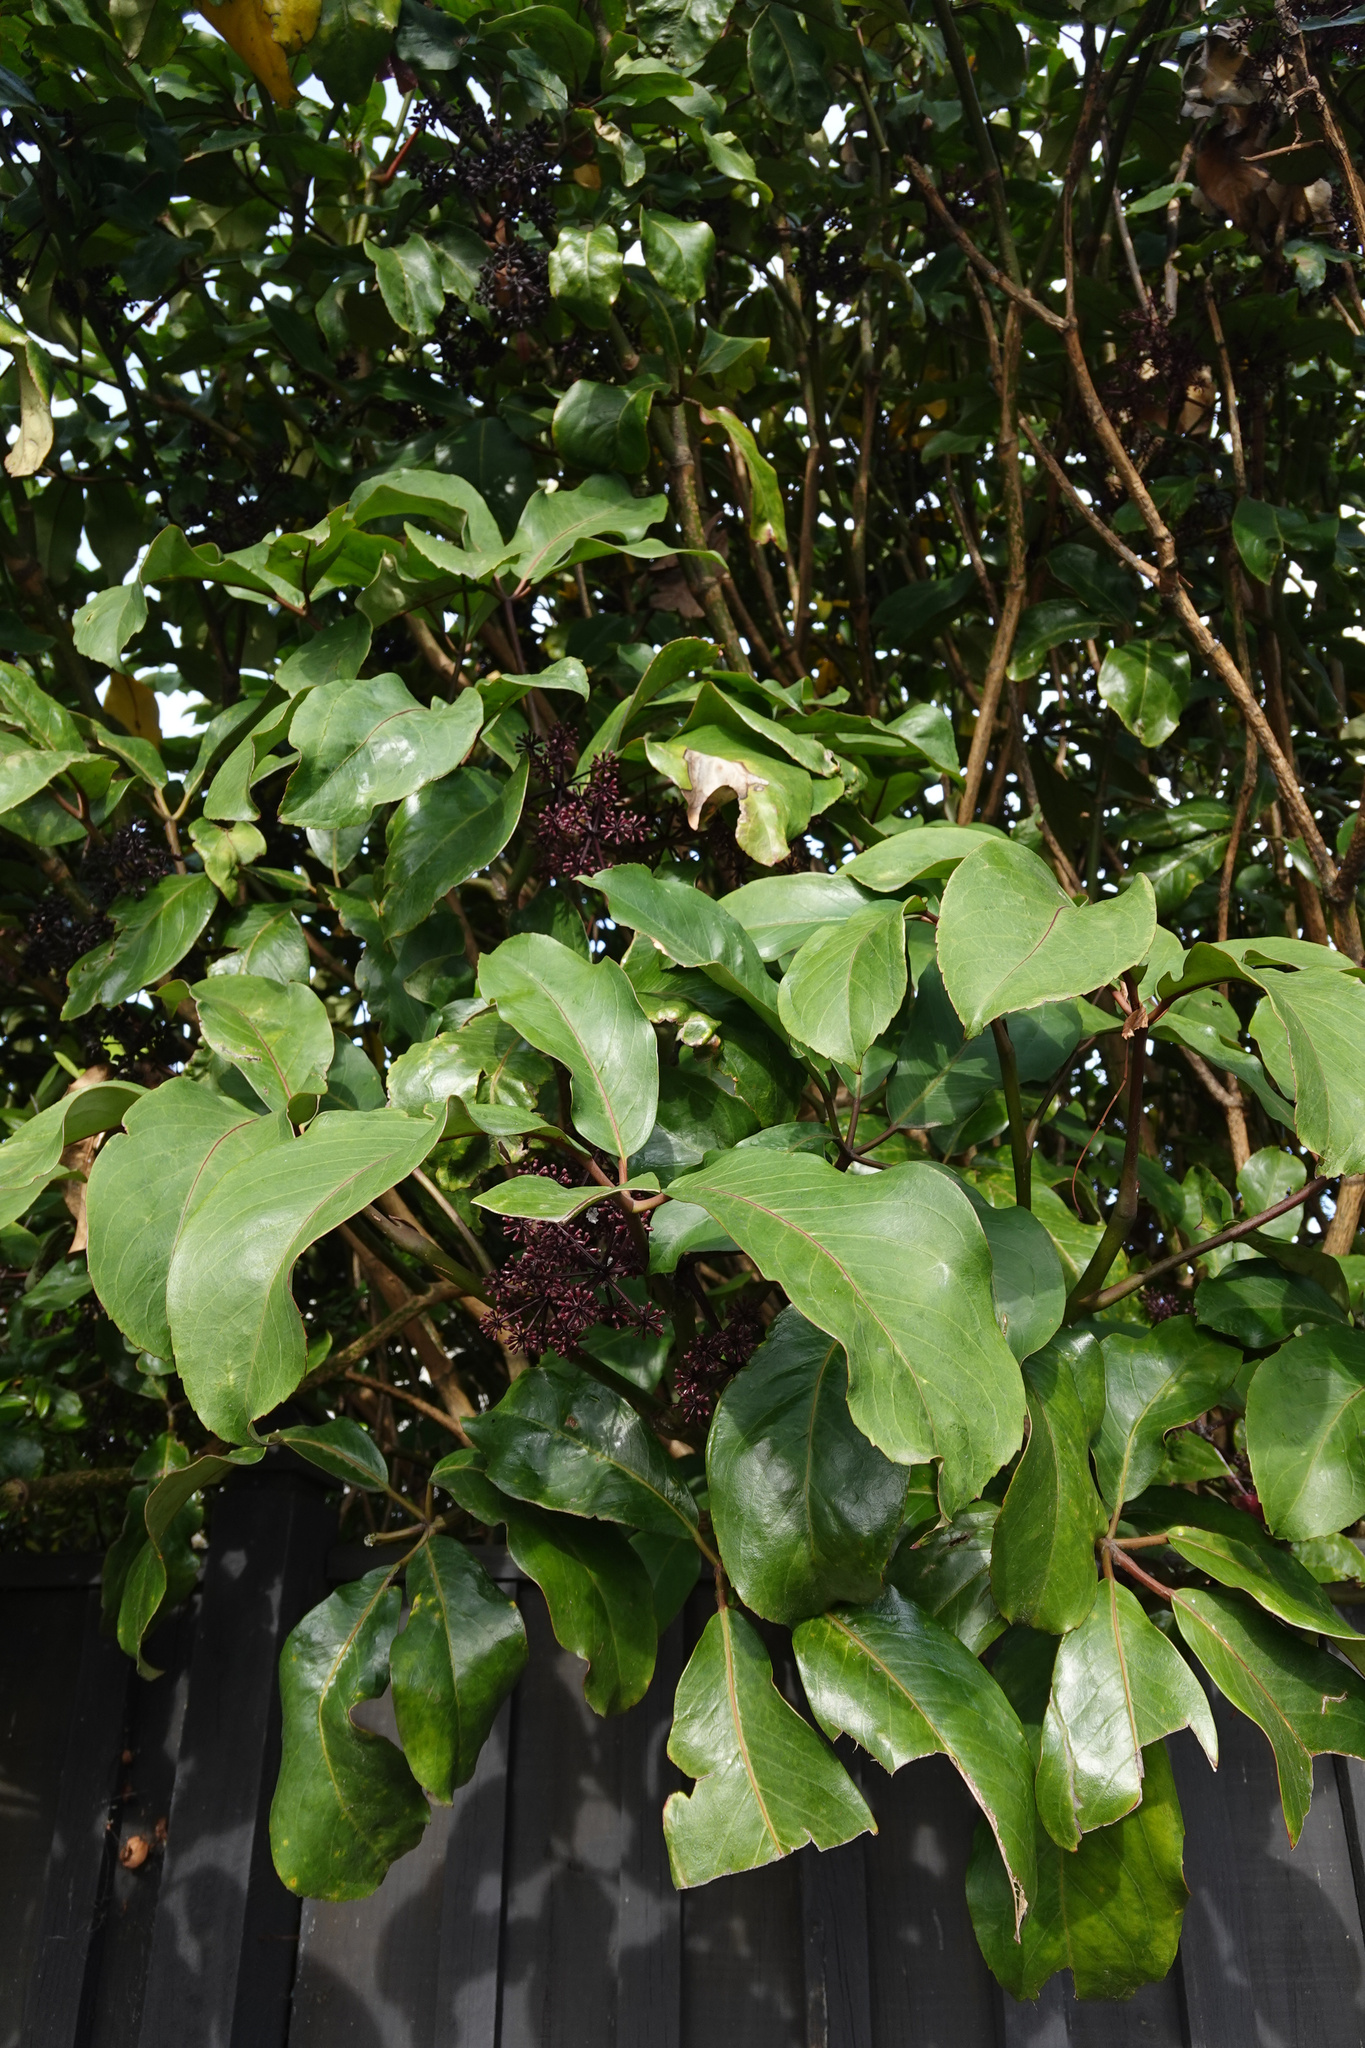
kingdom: Plantae
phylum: Tracheophyta
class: Magnoliopsida
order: Apiales
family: Araliaceae
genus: Neopanax
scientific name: Neopanax laetus
